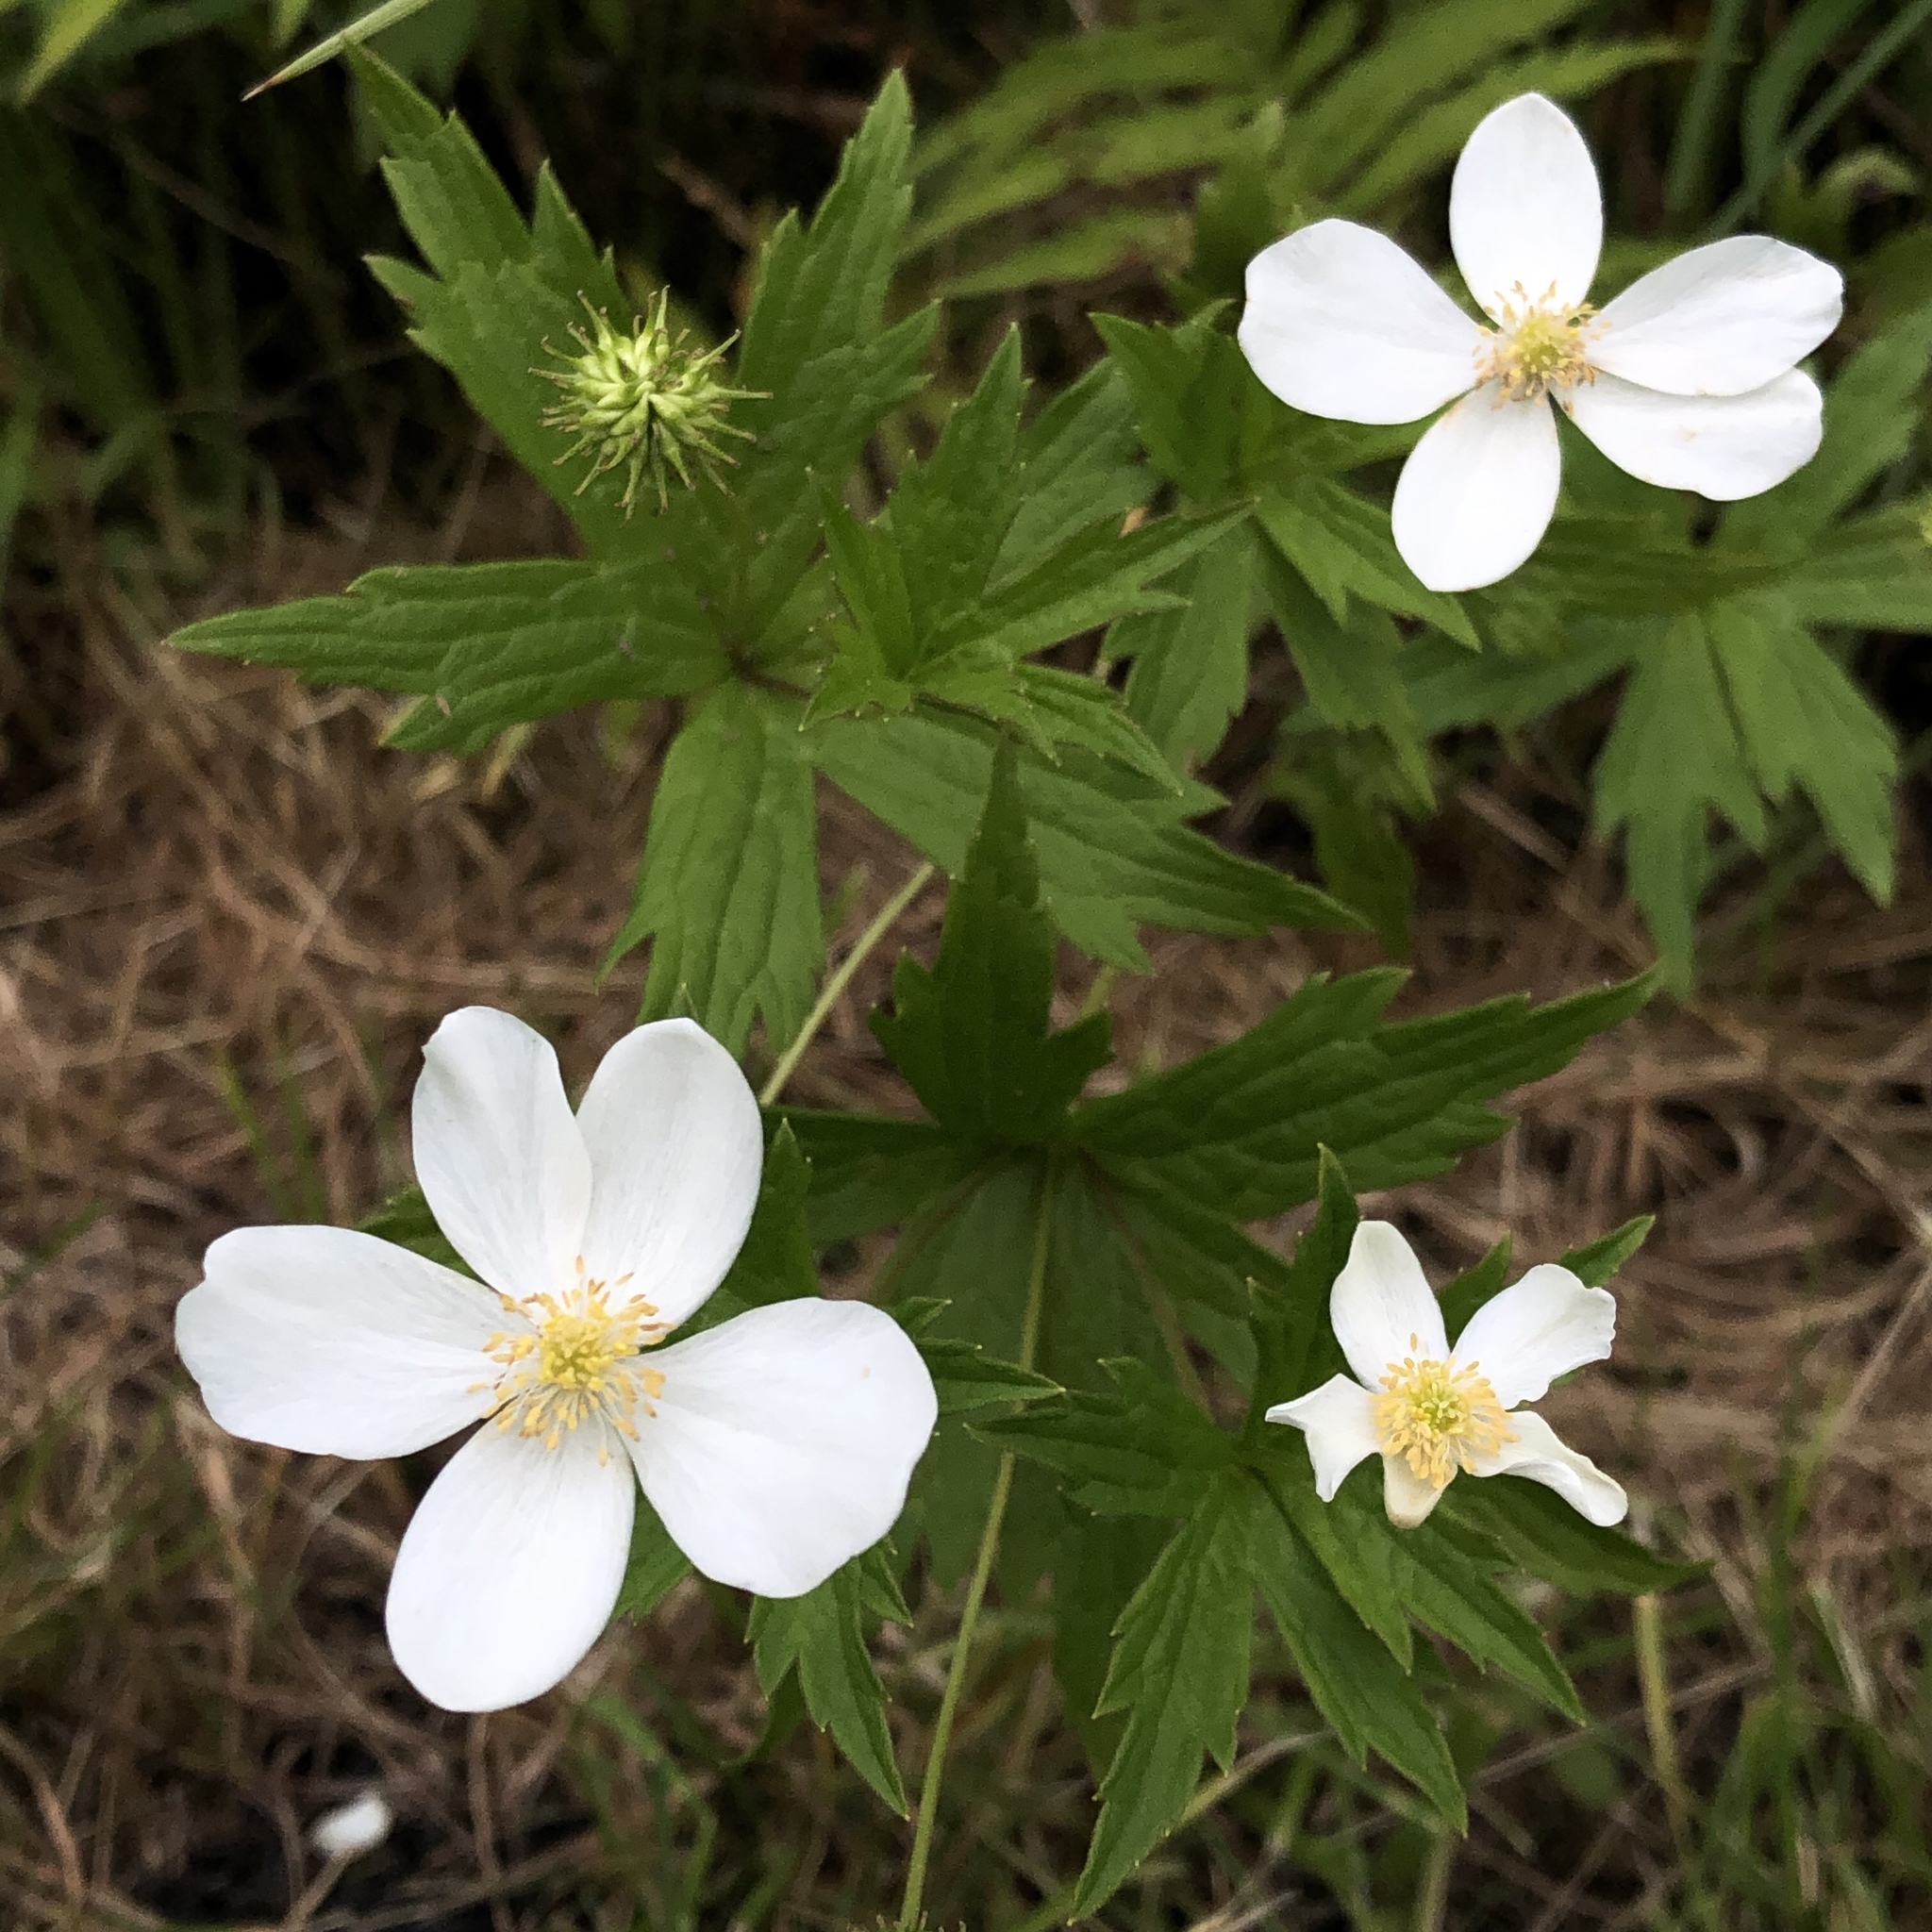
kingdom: Plantae
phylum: Tracheophyta
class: Magnoliopsida
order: Ranunculales
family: Ranunculaceae
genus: Anemonastrum
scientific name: Anemonastrum canadense
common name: Canada anemone
